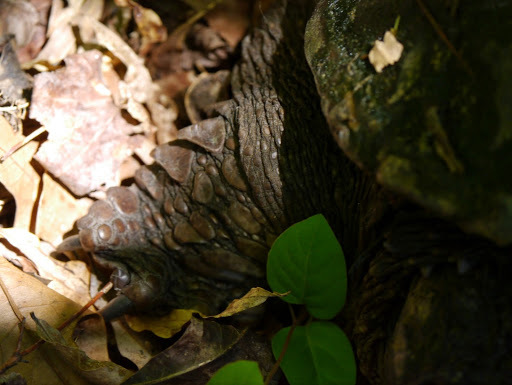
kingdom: Animalia
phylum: Chordata
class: Testudines
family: Chelydridae
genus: Chelydra
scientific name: Chelydra serpentina
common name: Common snapping turtle
